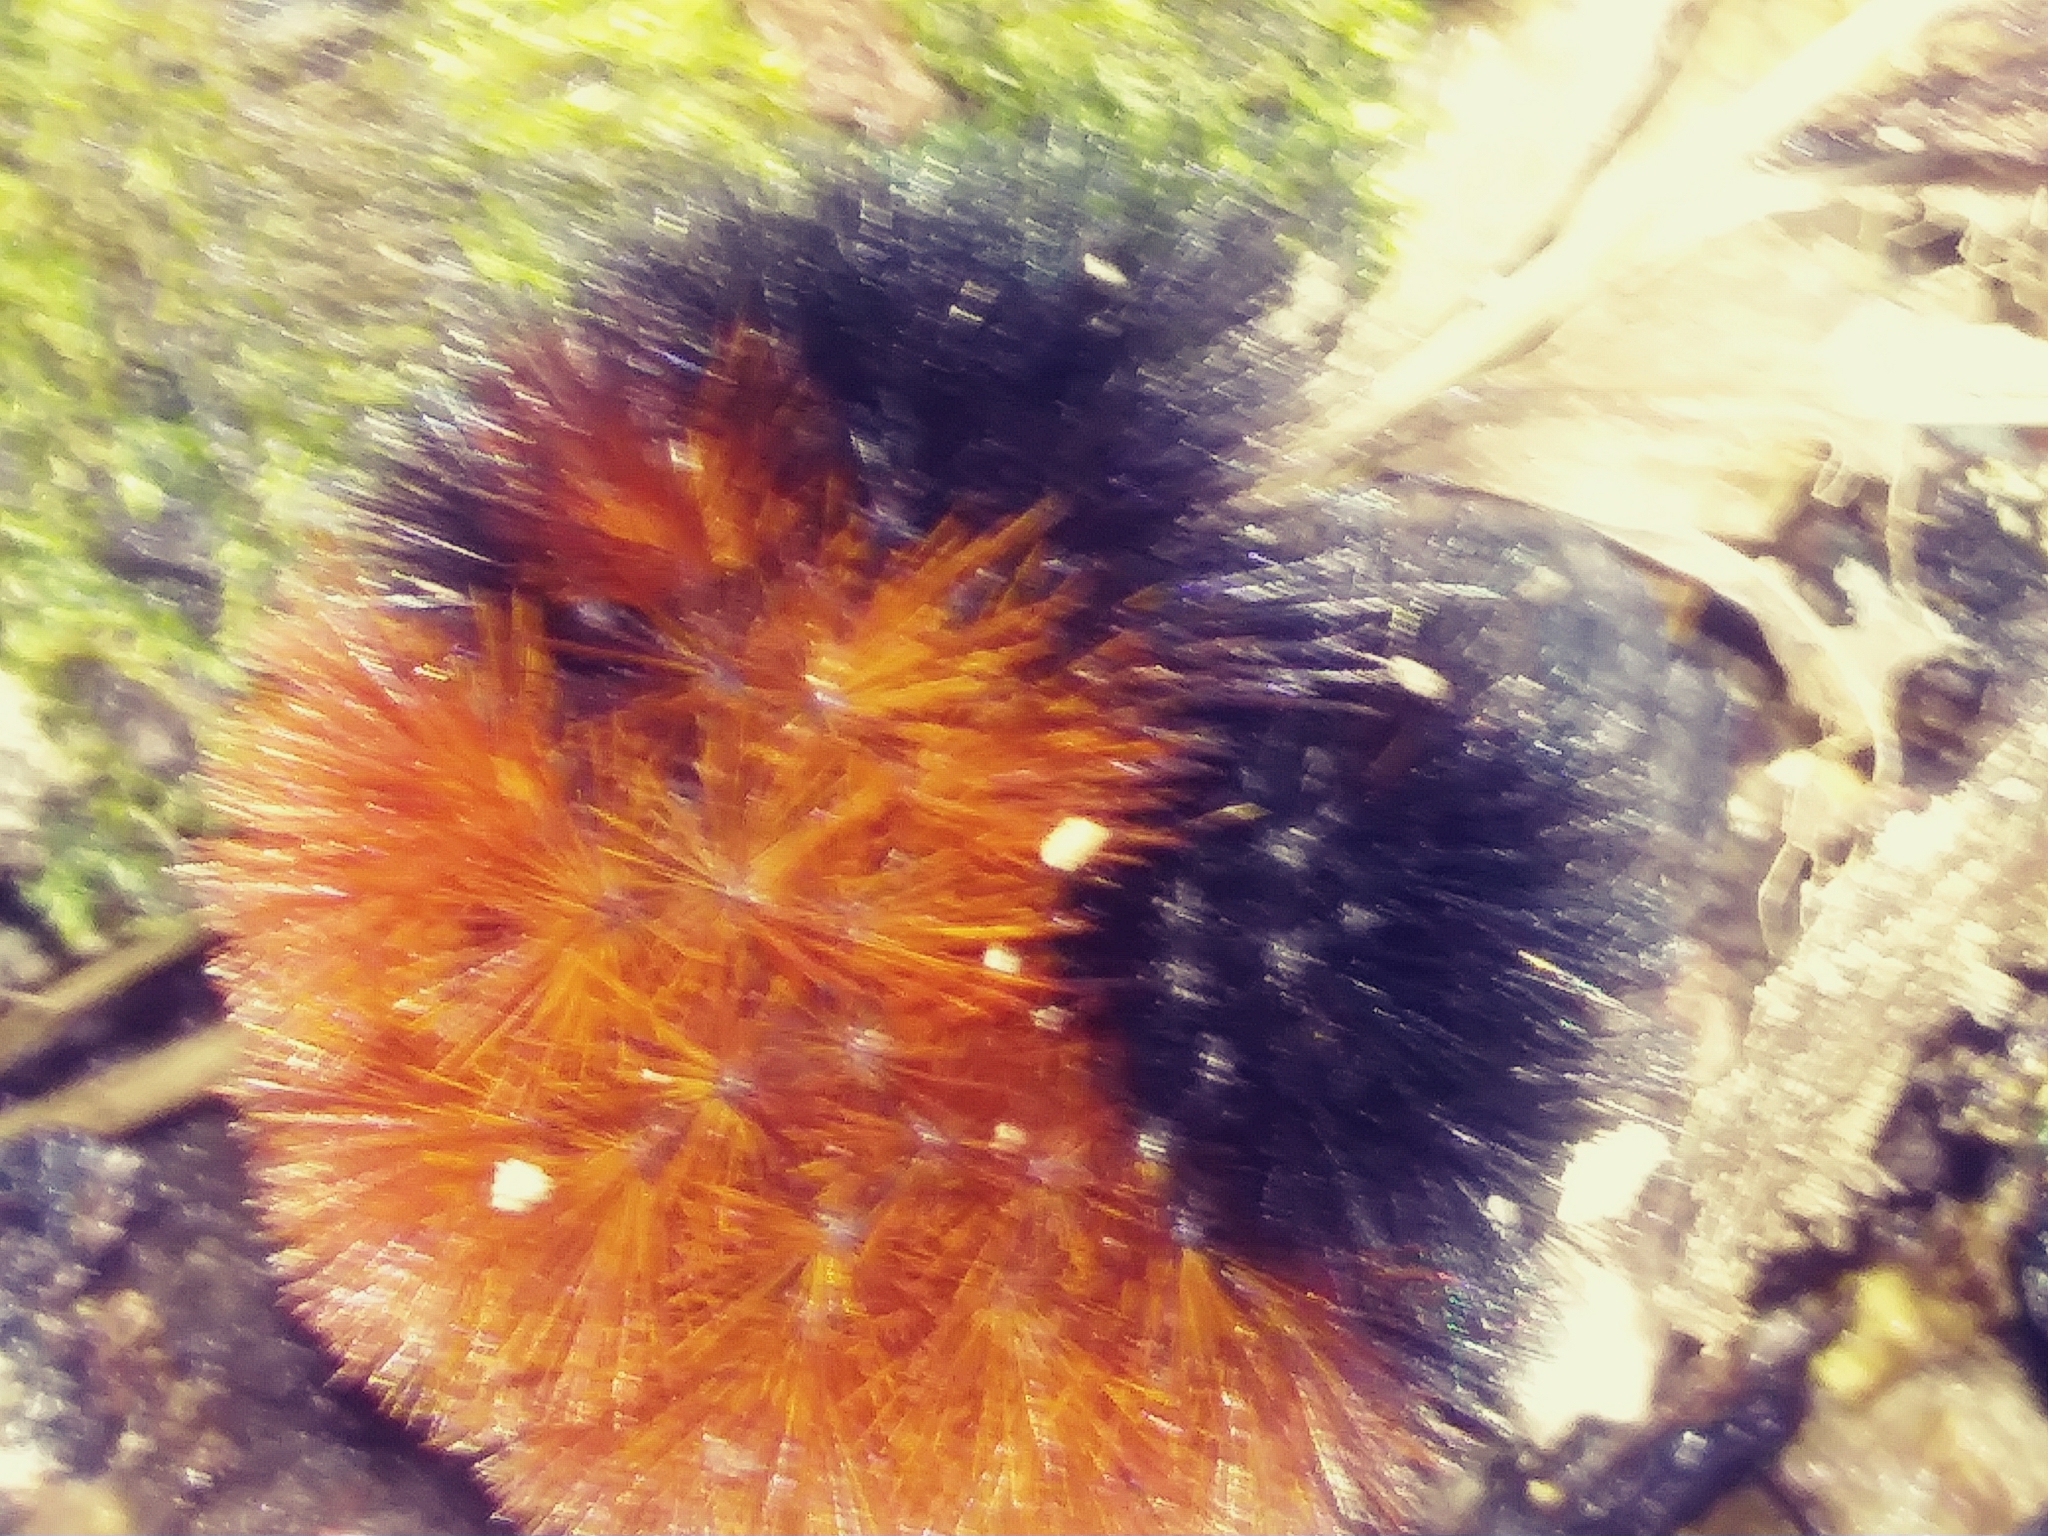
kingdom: Animalia
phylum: Arthropoda
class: Insecta
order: Lepidoptera
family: Erebidae
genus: Pyrrharctia
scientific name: Pyrrharctia isabella
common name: Isabella tiger moth
